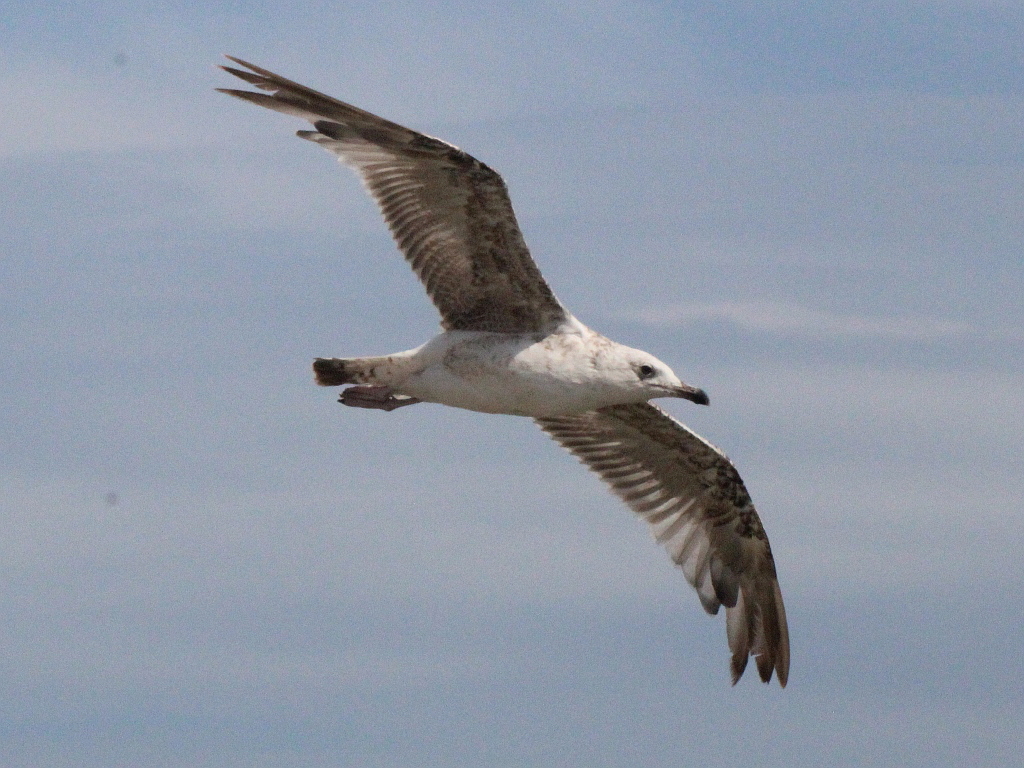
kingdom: Animalia
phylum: Chordata
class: Aves
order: Charadriiformes
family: Laridae
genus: Larus
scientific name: Larus michahellis
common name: Yellow-legged gull
